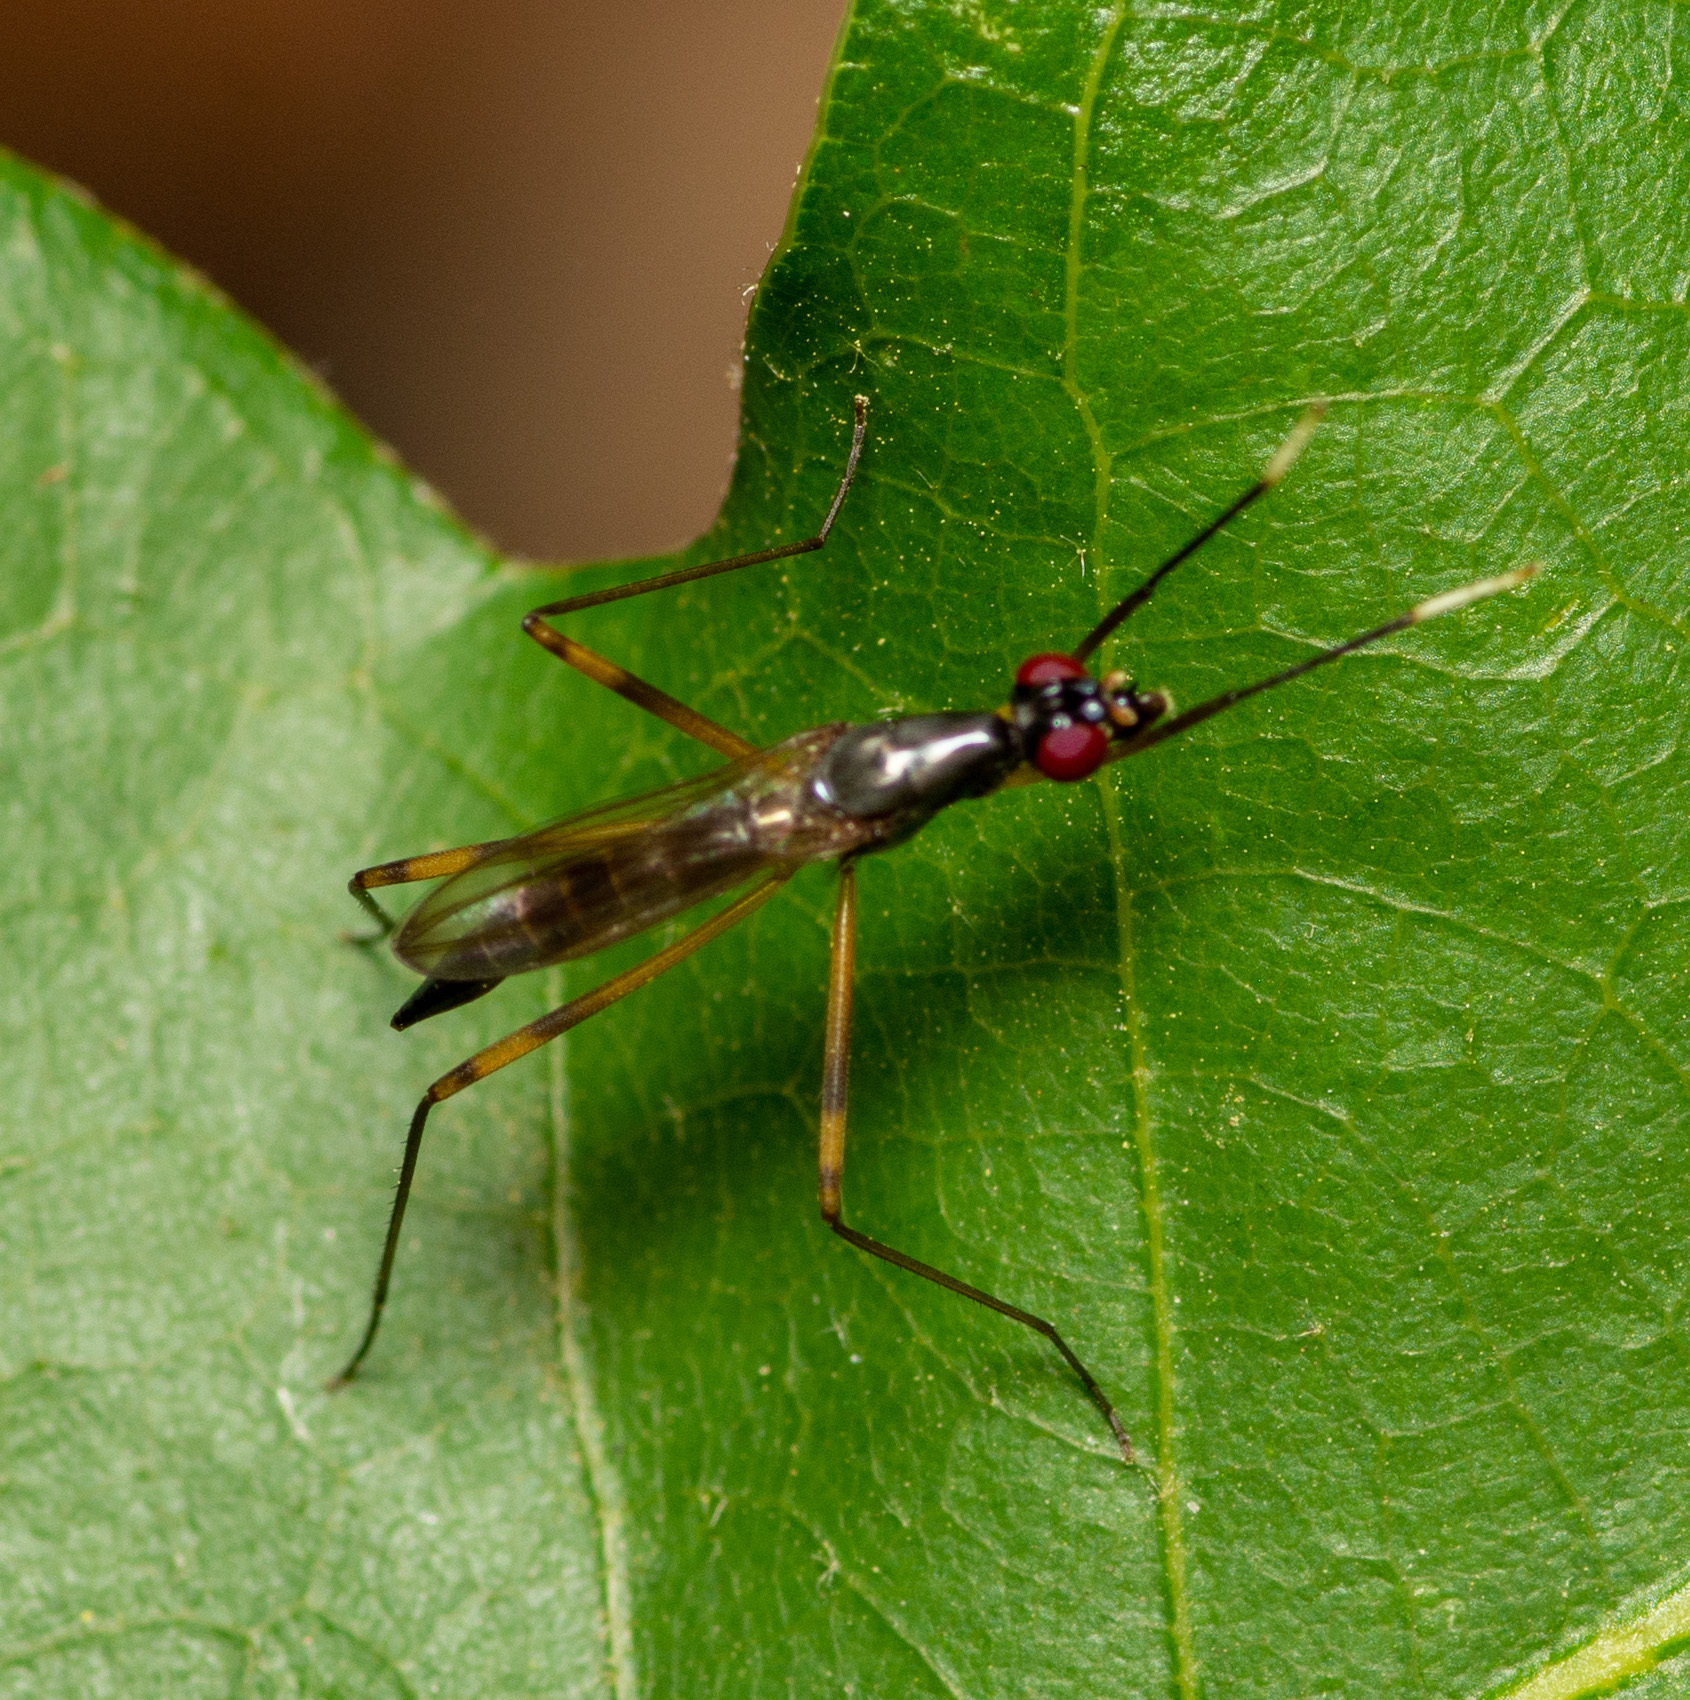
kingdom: Animalia
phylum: Arthropoda
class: Insecta
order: Diptera
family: Micropezidae
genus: Rainieria
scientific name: Rainieria antennaepes
